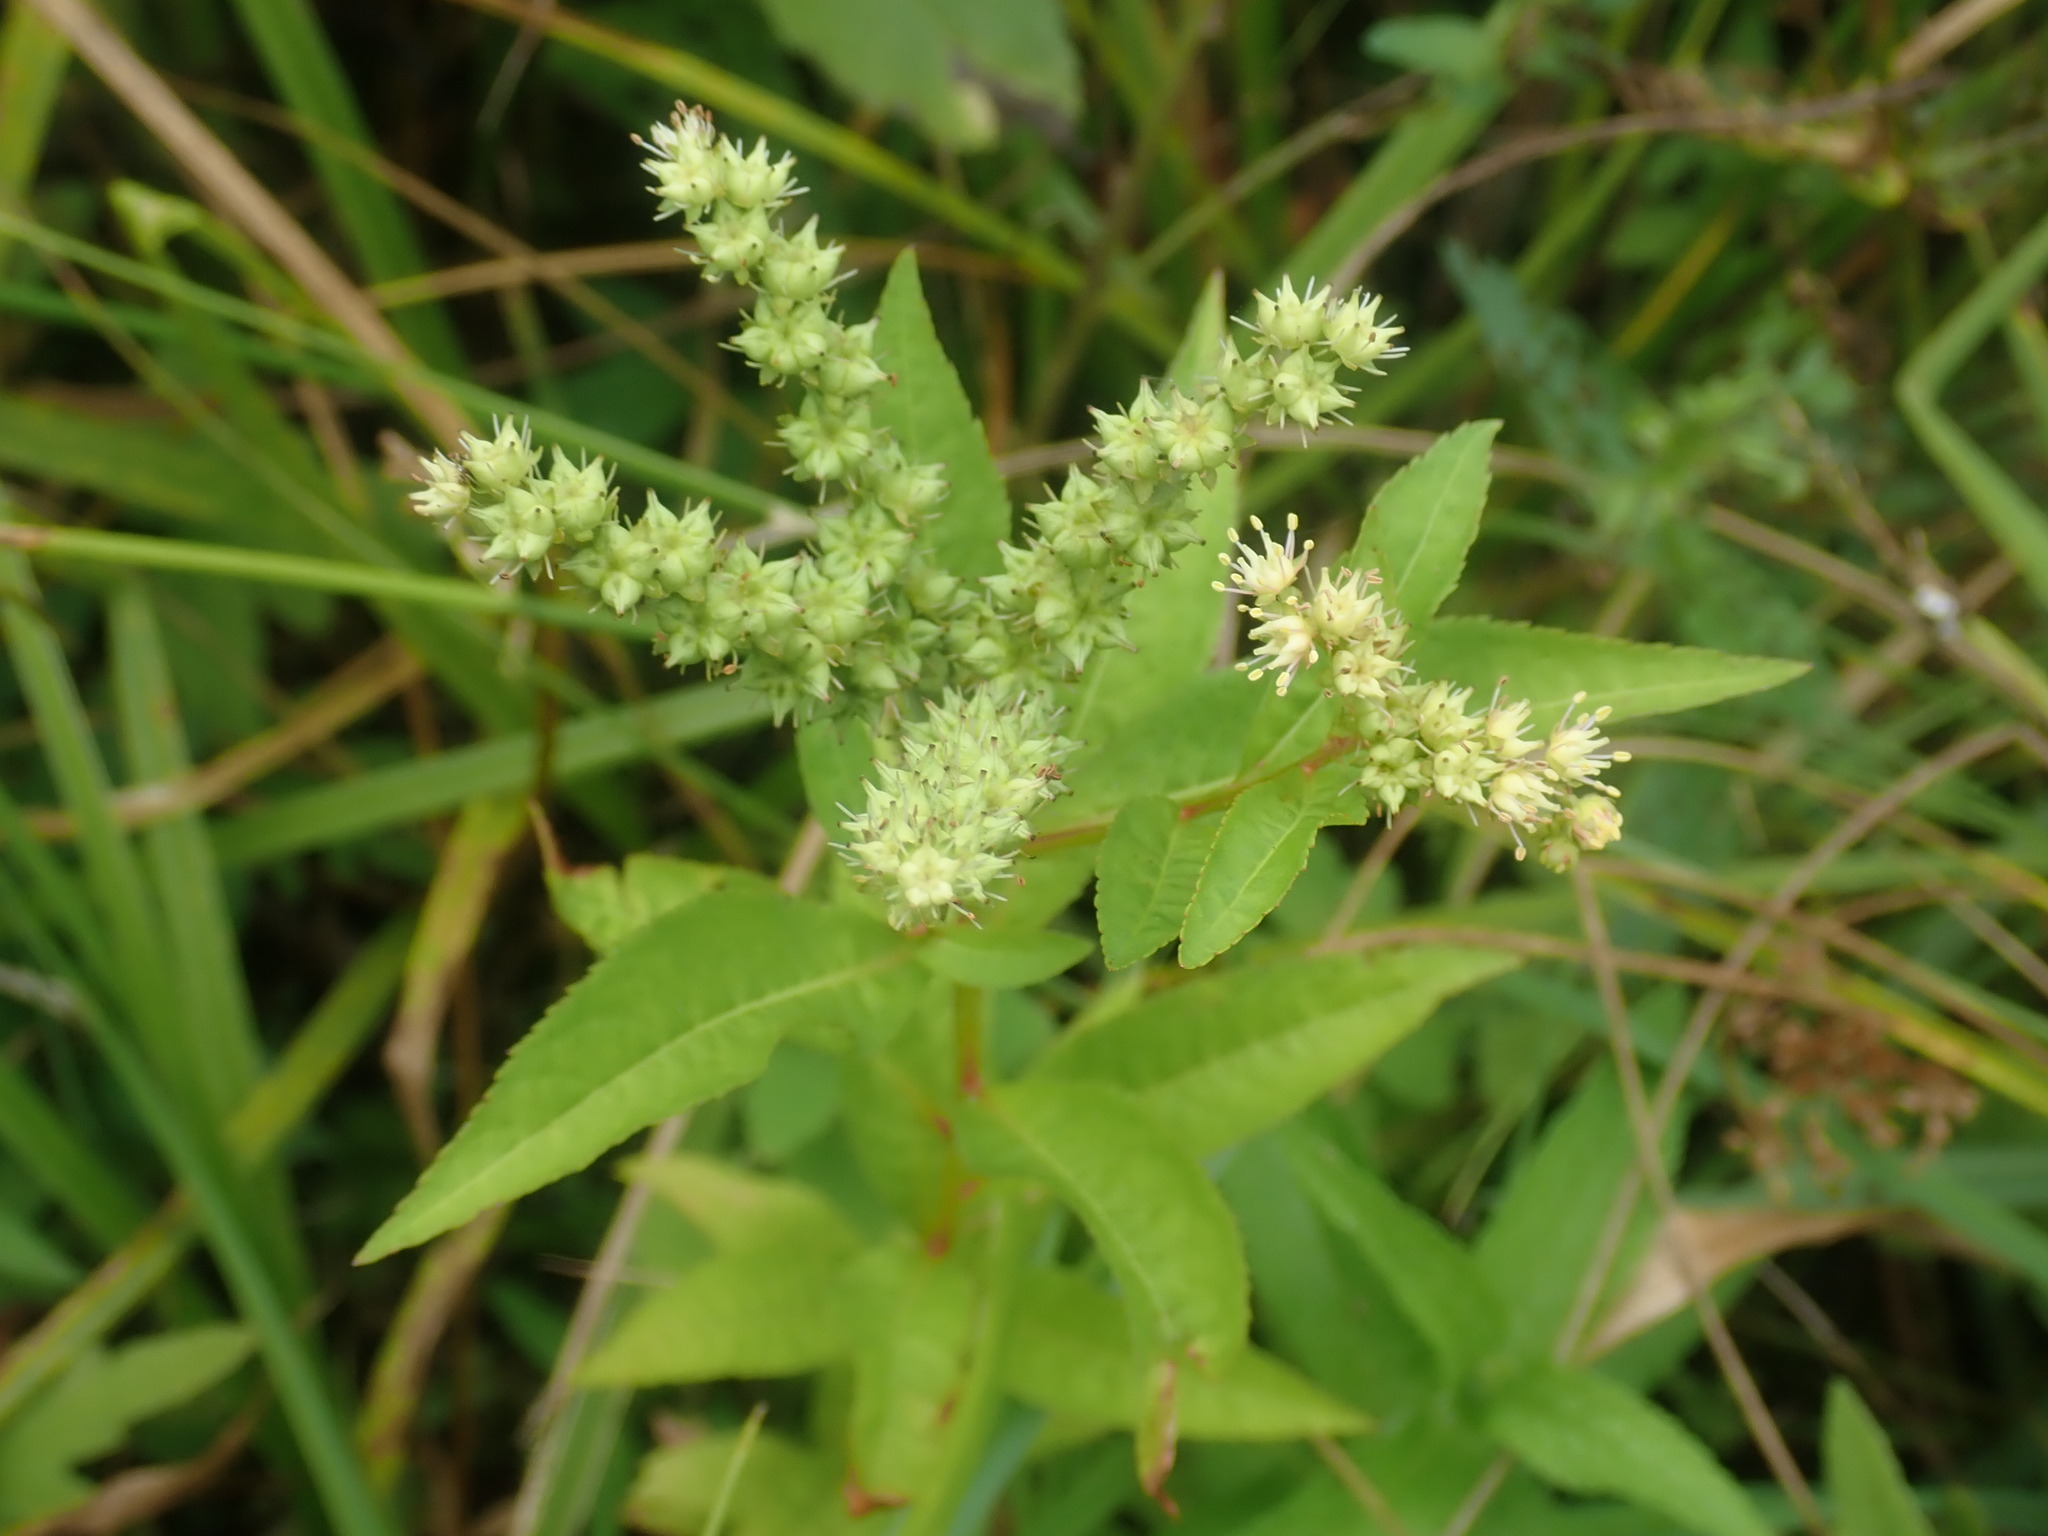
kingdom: Plantae
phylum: Tracheophyta
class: Magnoliopsida
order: Saxifragales
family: Penthoraceae
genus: Penthorum
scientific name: Penthorum sedoides
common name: Ditch stonecrop
